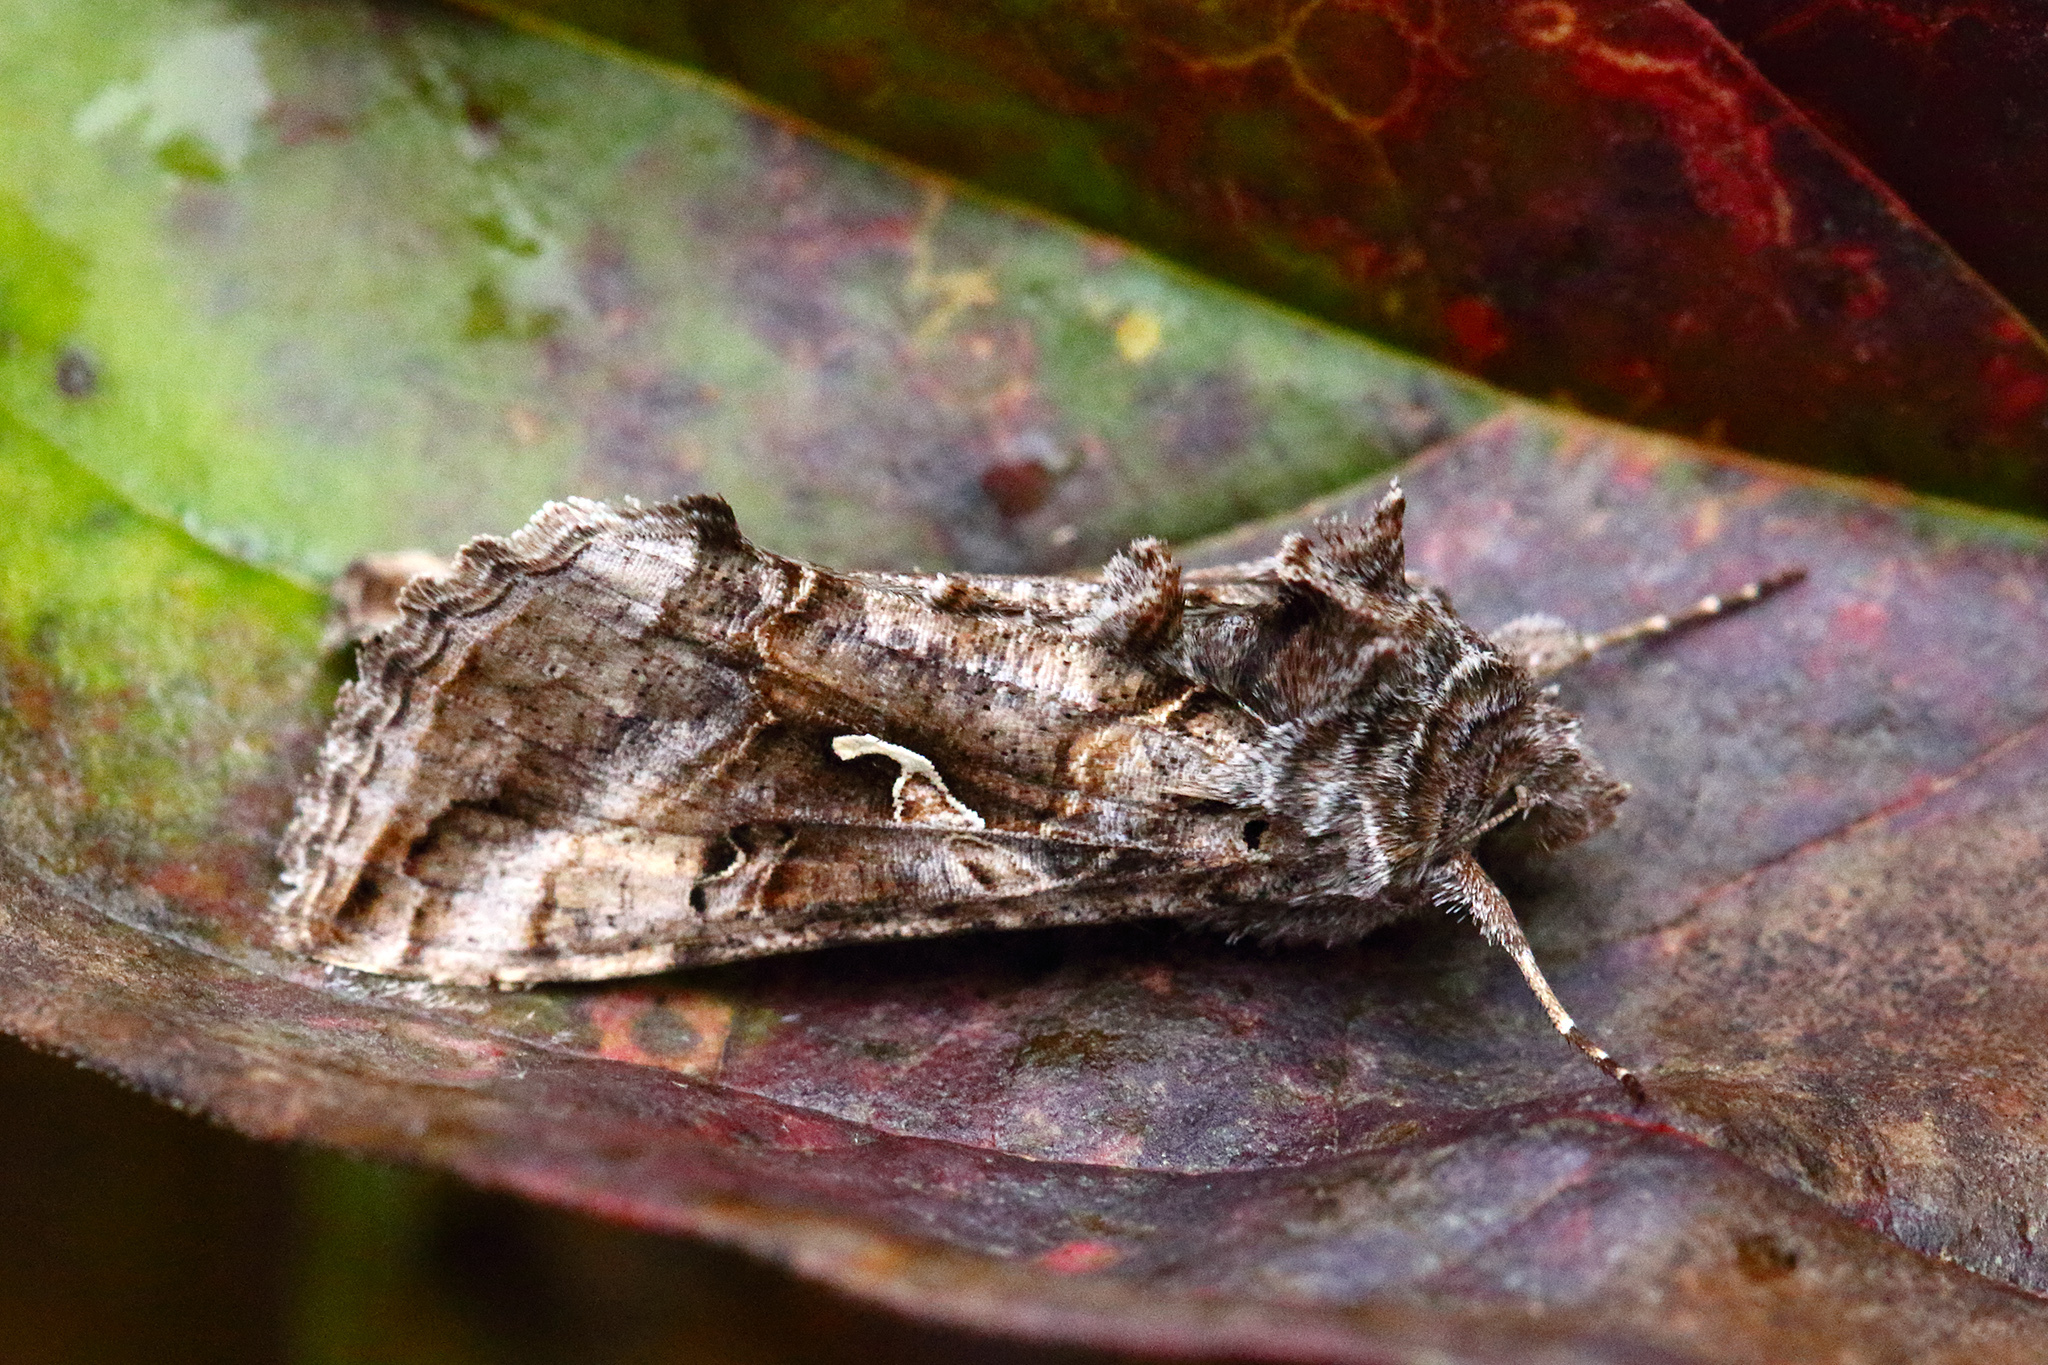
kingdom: Animalia
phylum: Arthropoda
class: Insecta
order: Lepidoptera
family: Noctuidae
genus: Autographa
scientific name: Autographa gamma
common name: Silver y
